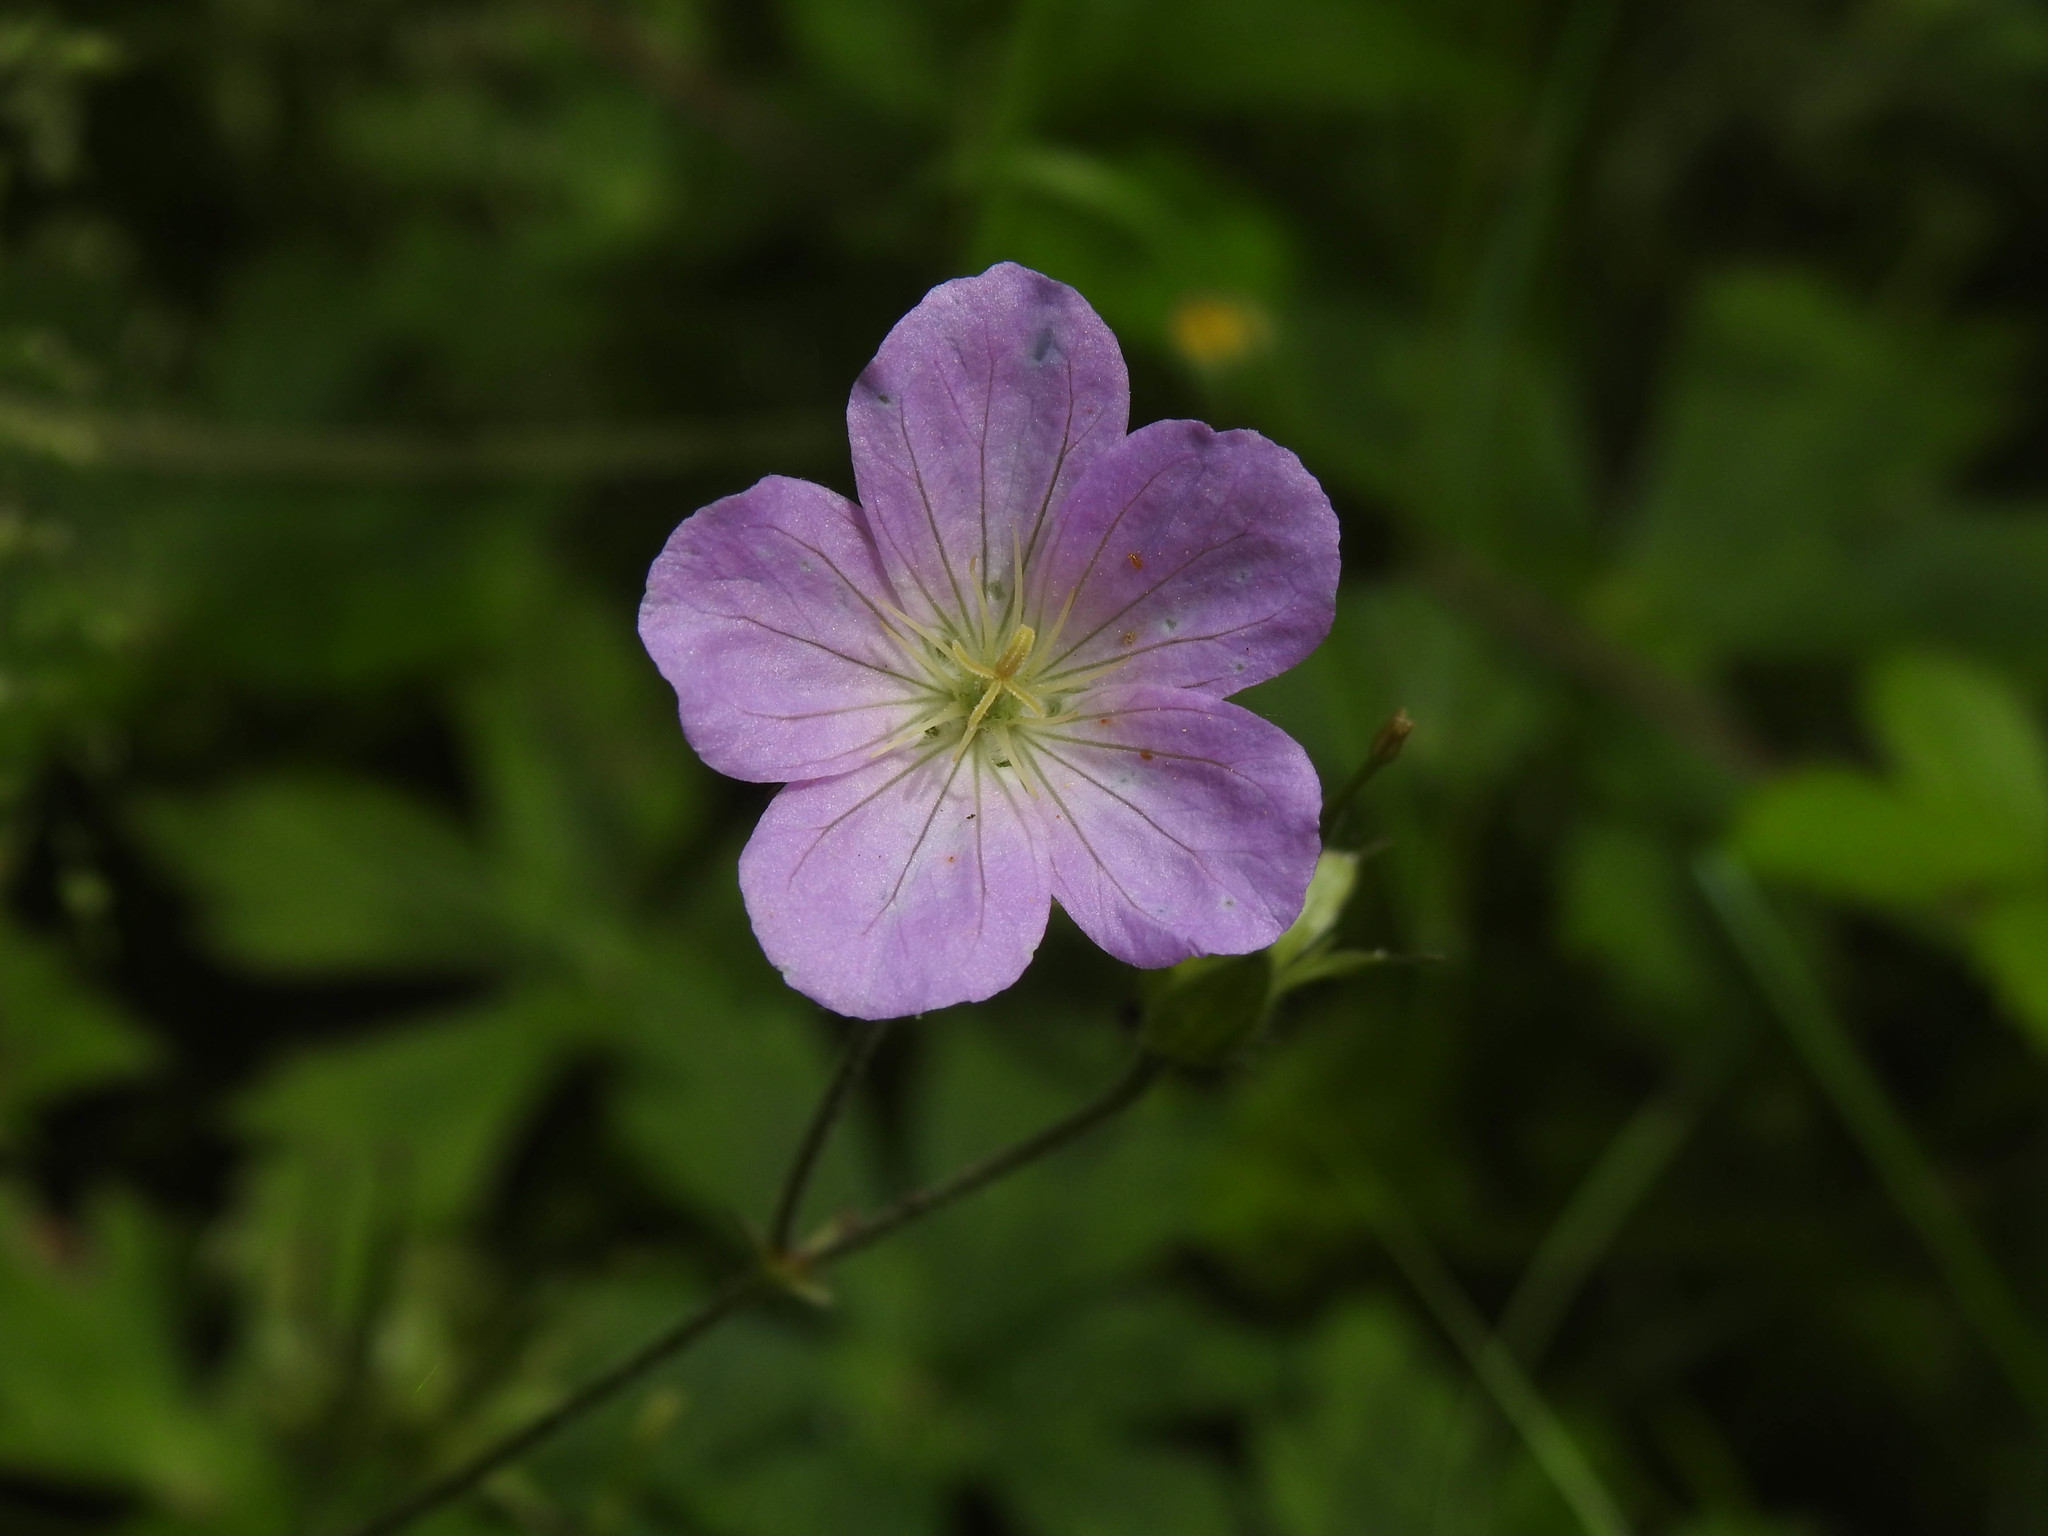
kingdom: Plantae
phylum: Tracheophyta
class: Magnoliopsida
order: Geraniales
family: Geraniaceae
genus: Geranium
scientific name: Geranium maculatum
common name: Spotted geranium
